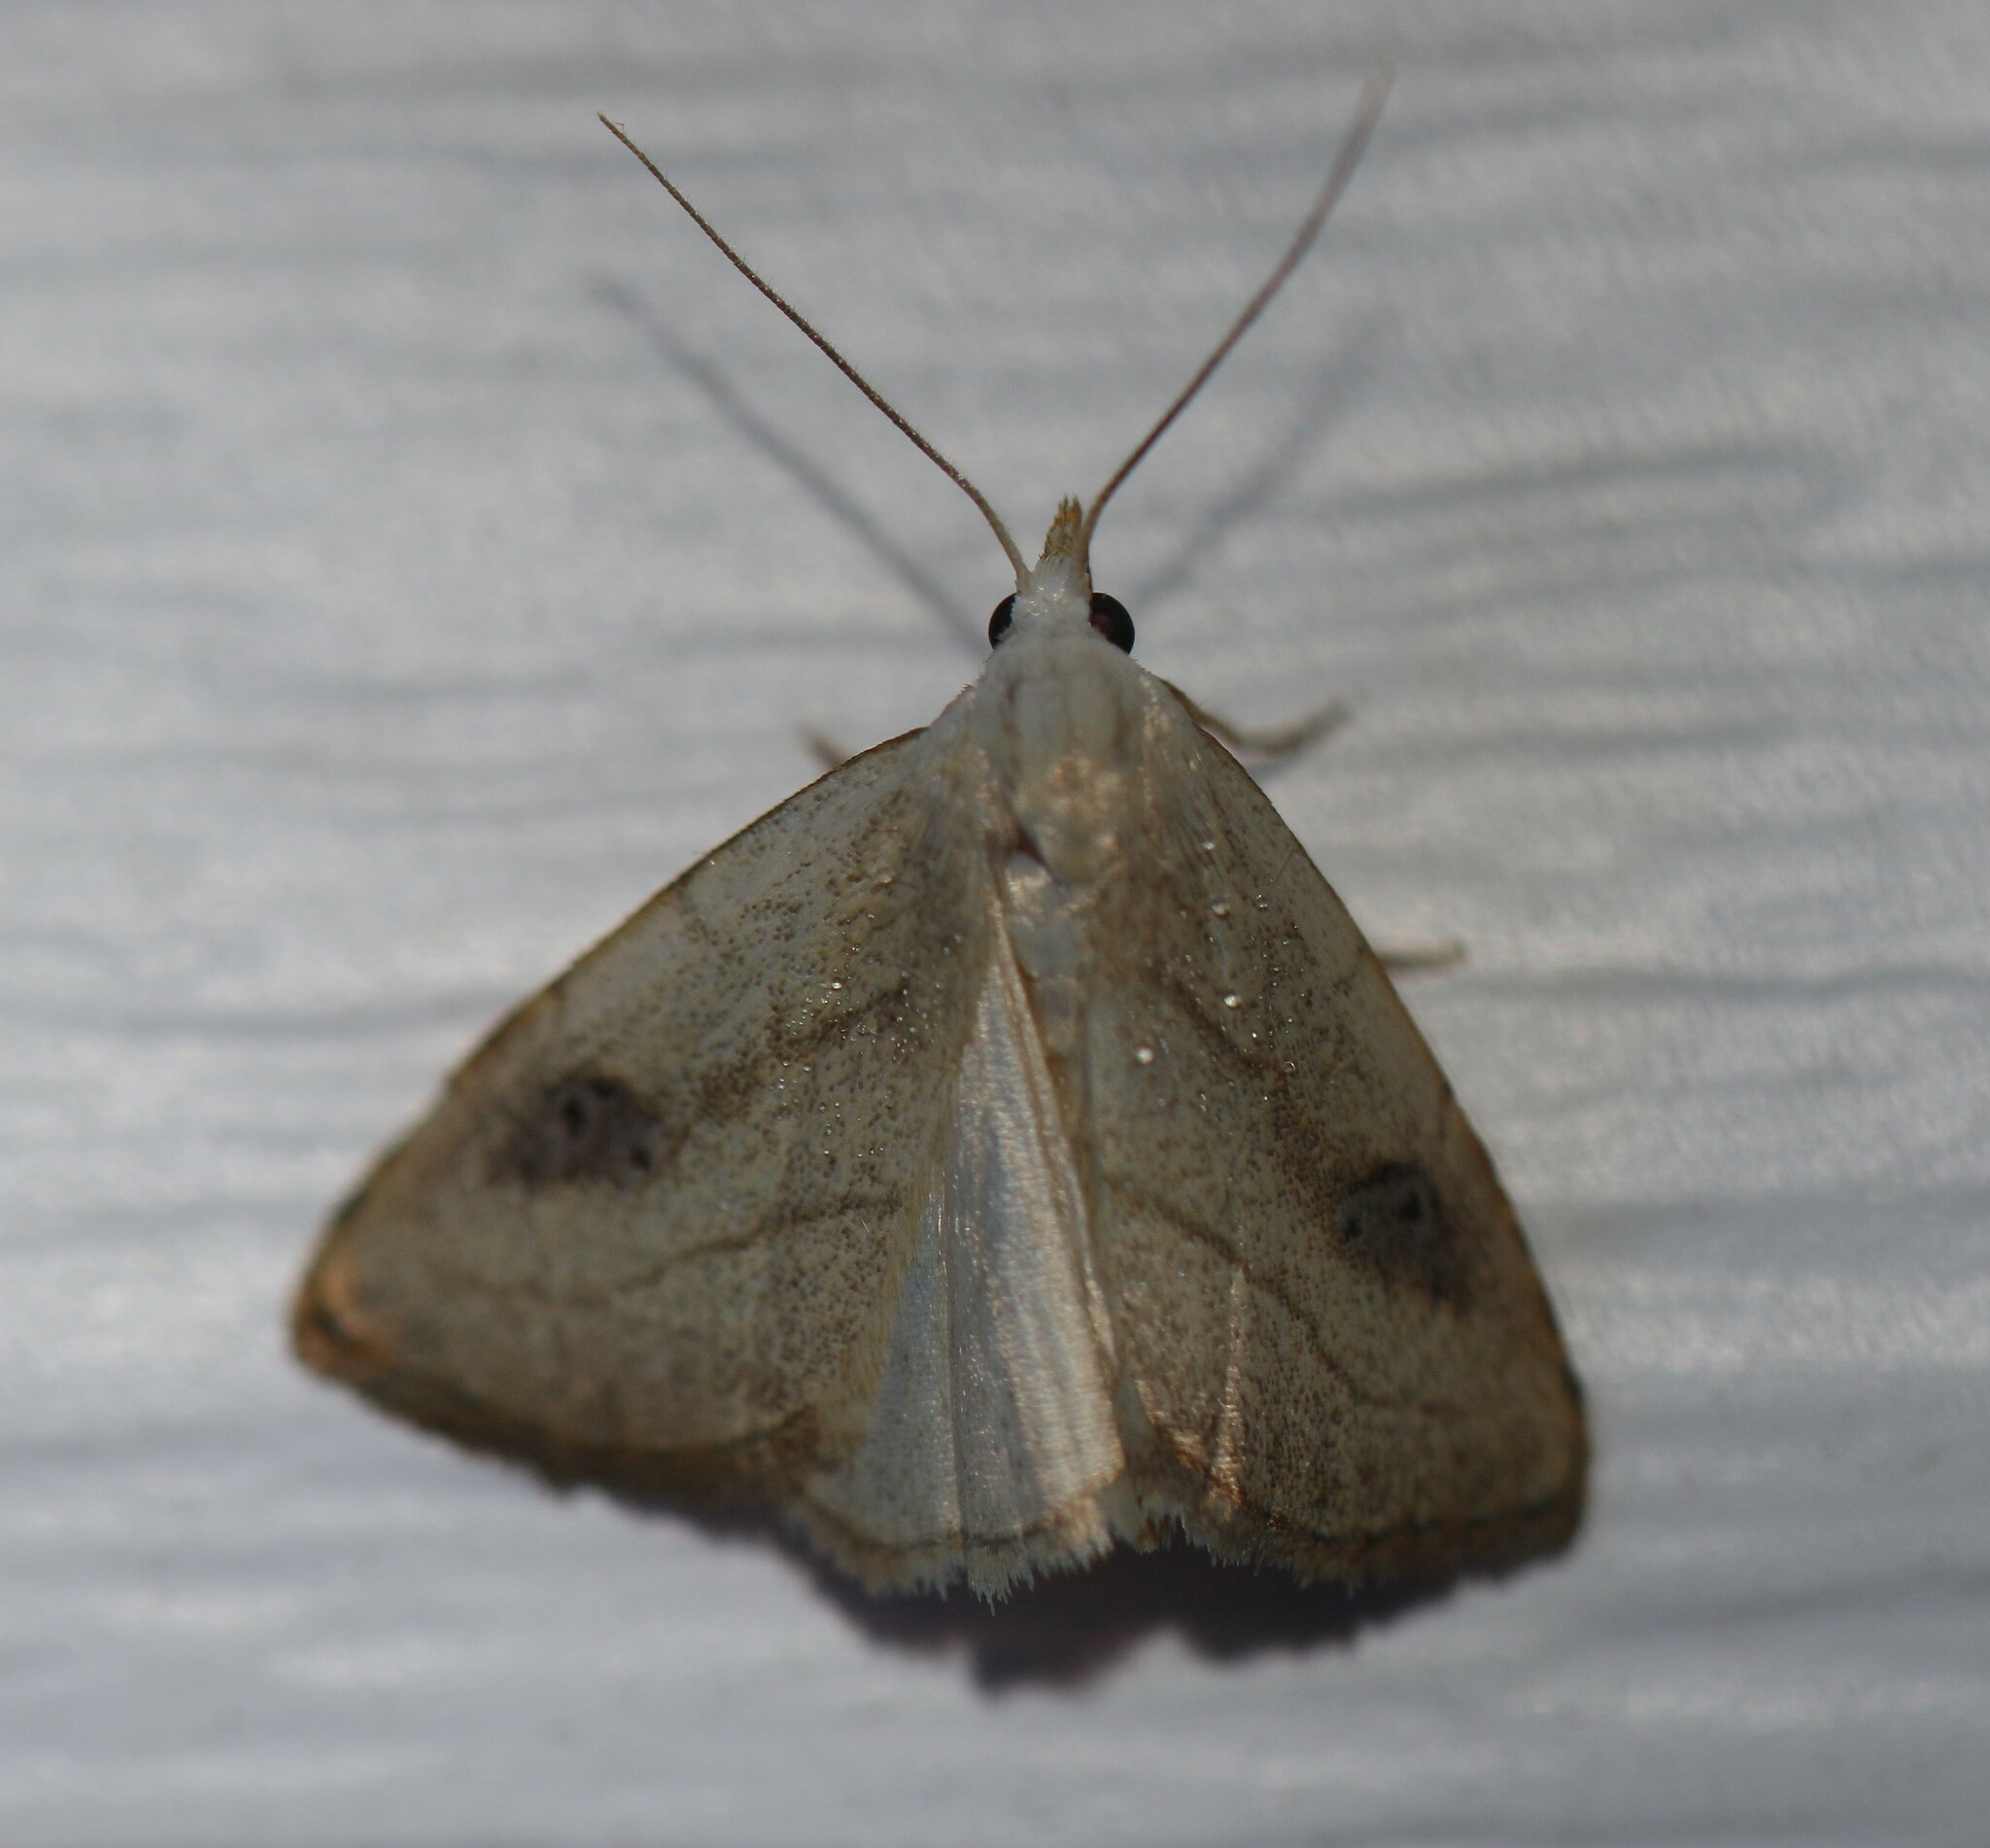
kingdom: Animalia
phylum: Arthropoda
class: Insecta
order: Lepidoptera
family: Erebidae
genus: Rivula
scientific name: Rivula propinqualis
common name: Spotted grass moth
